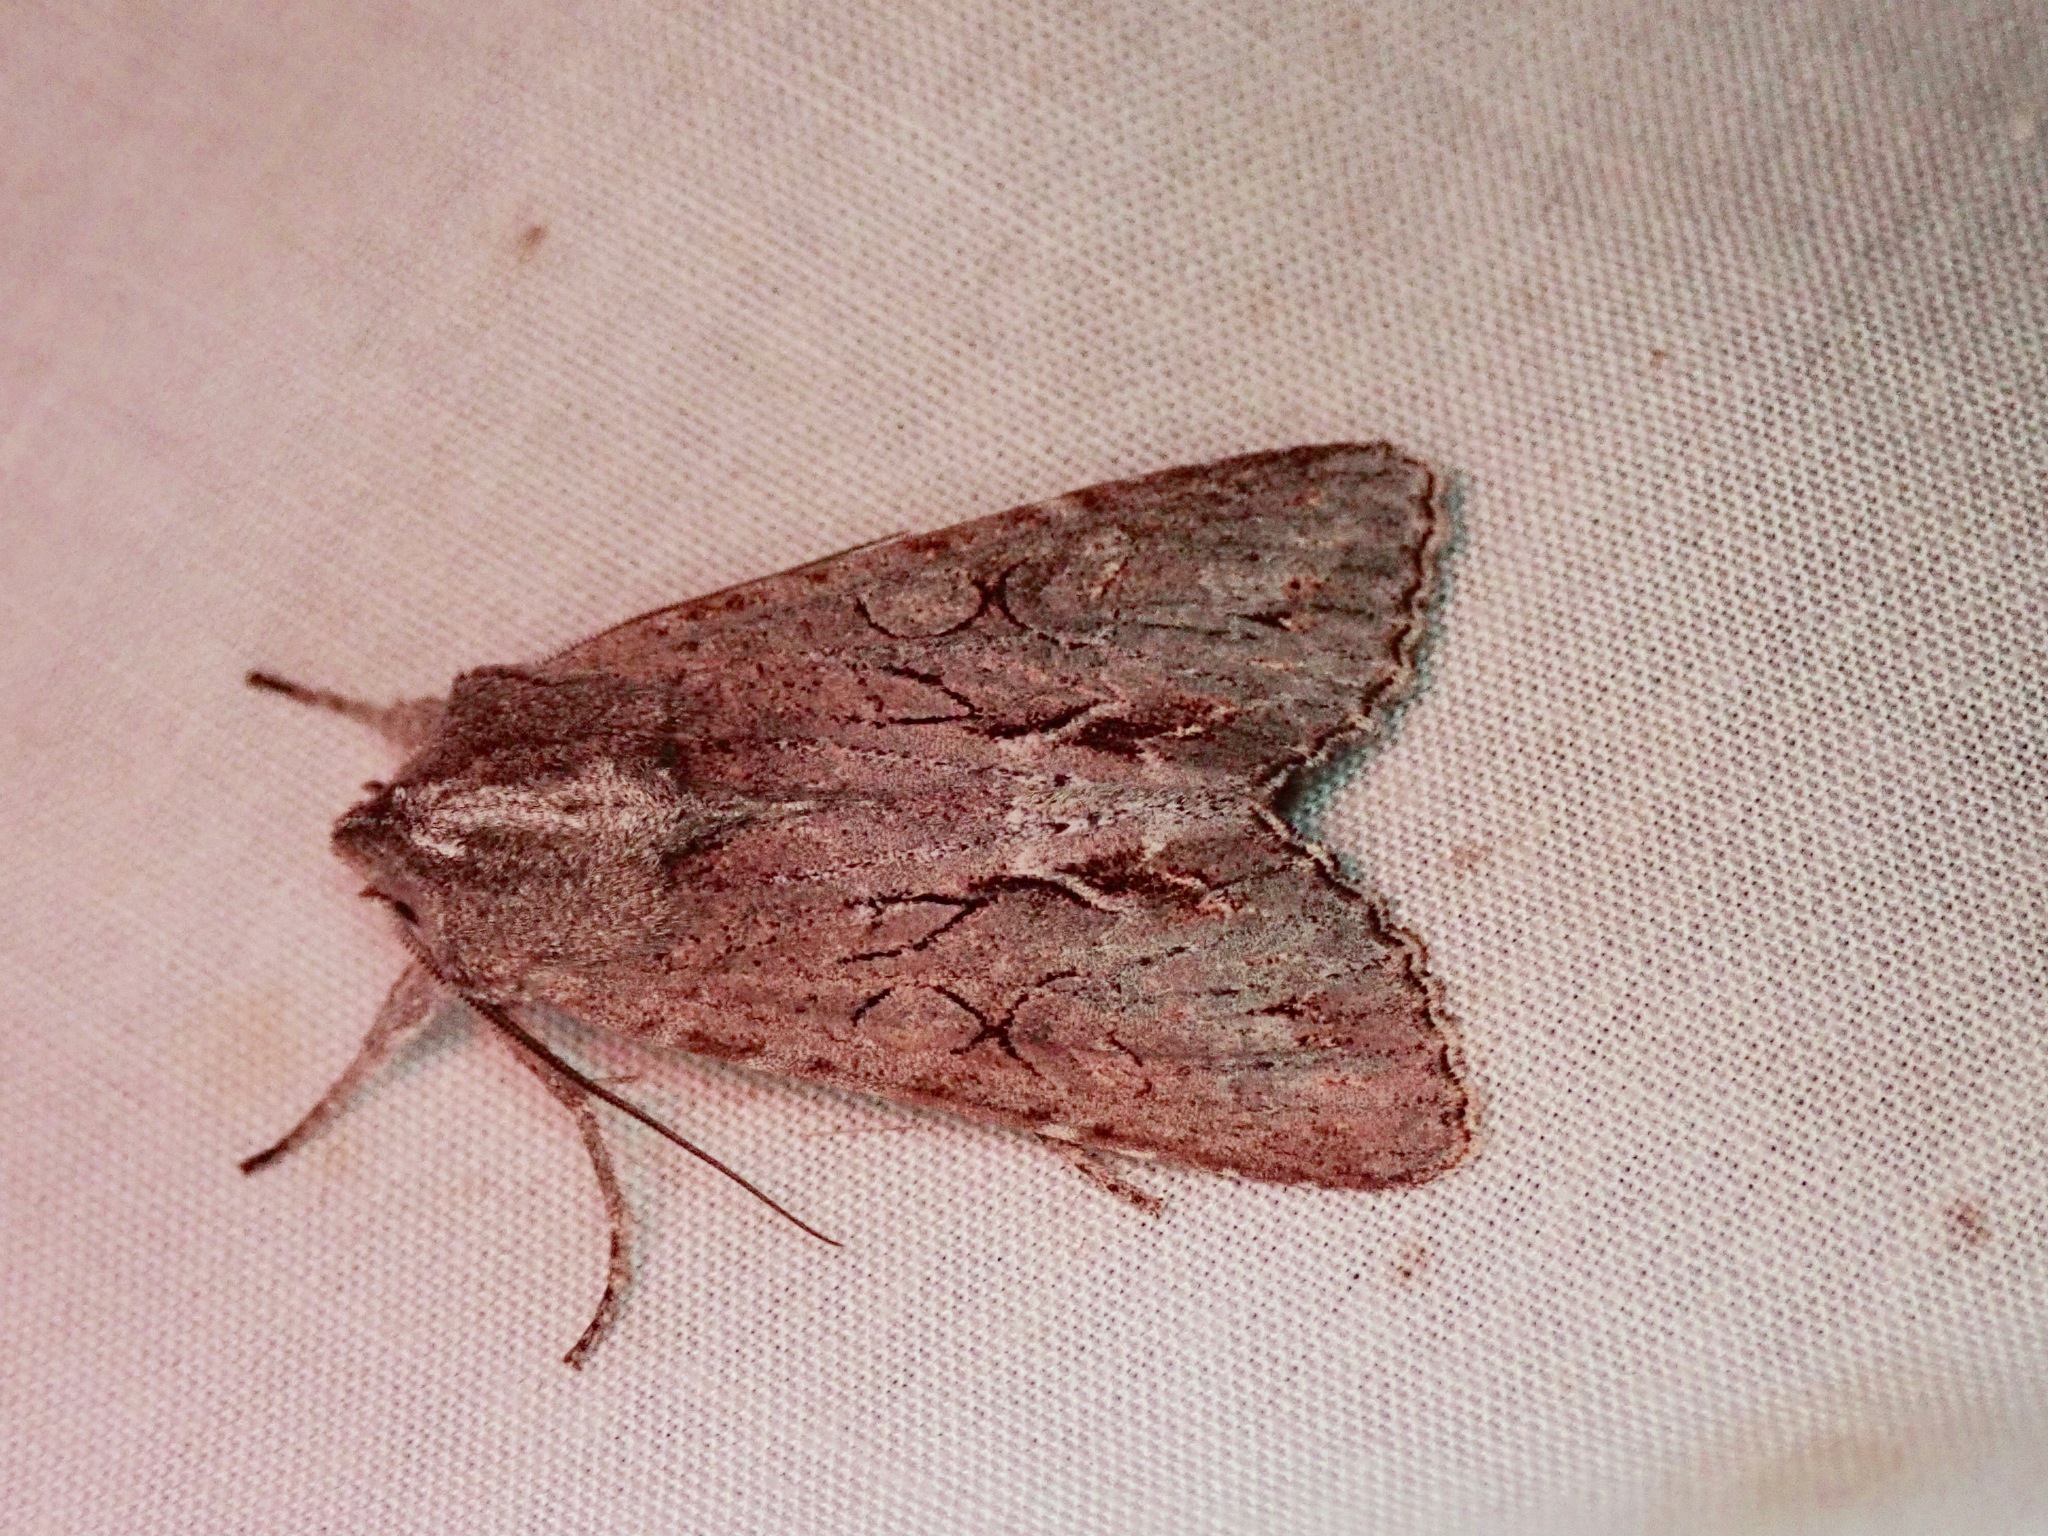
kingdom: Animalia
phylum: Arthropoda
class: Insecta
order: Lepidoptera
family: Noctuidae
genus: Ichneutica
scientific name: Ichneutica
